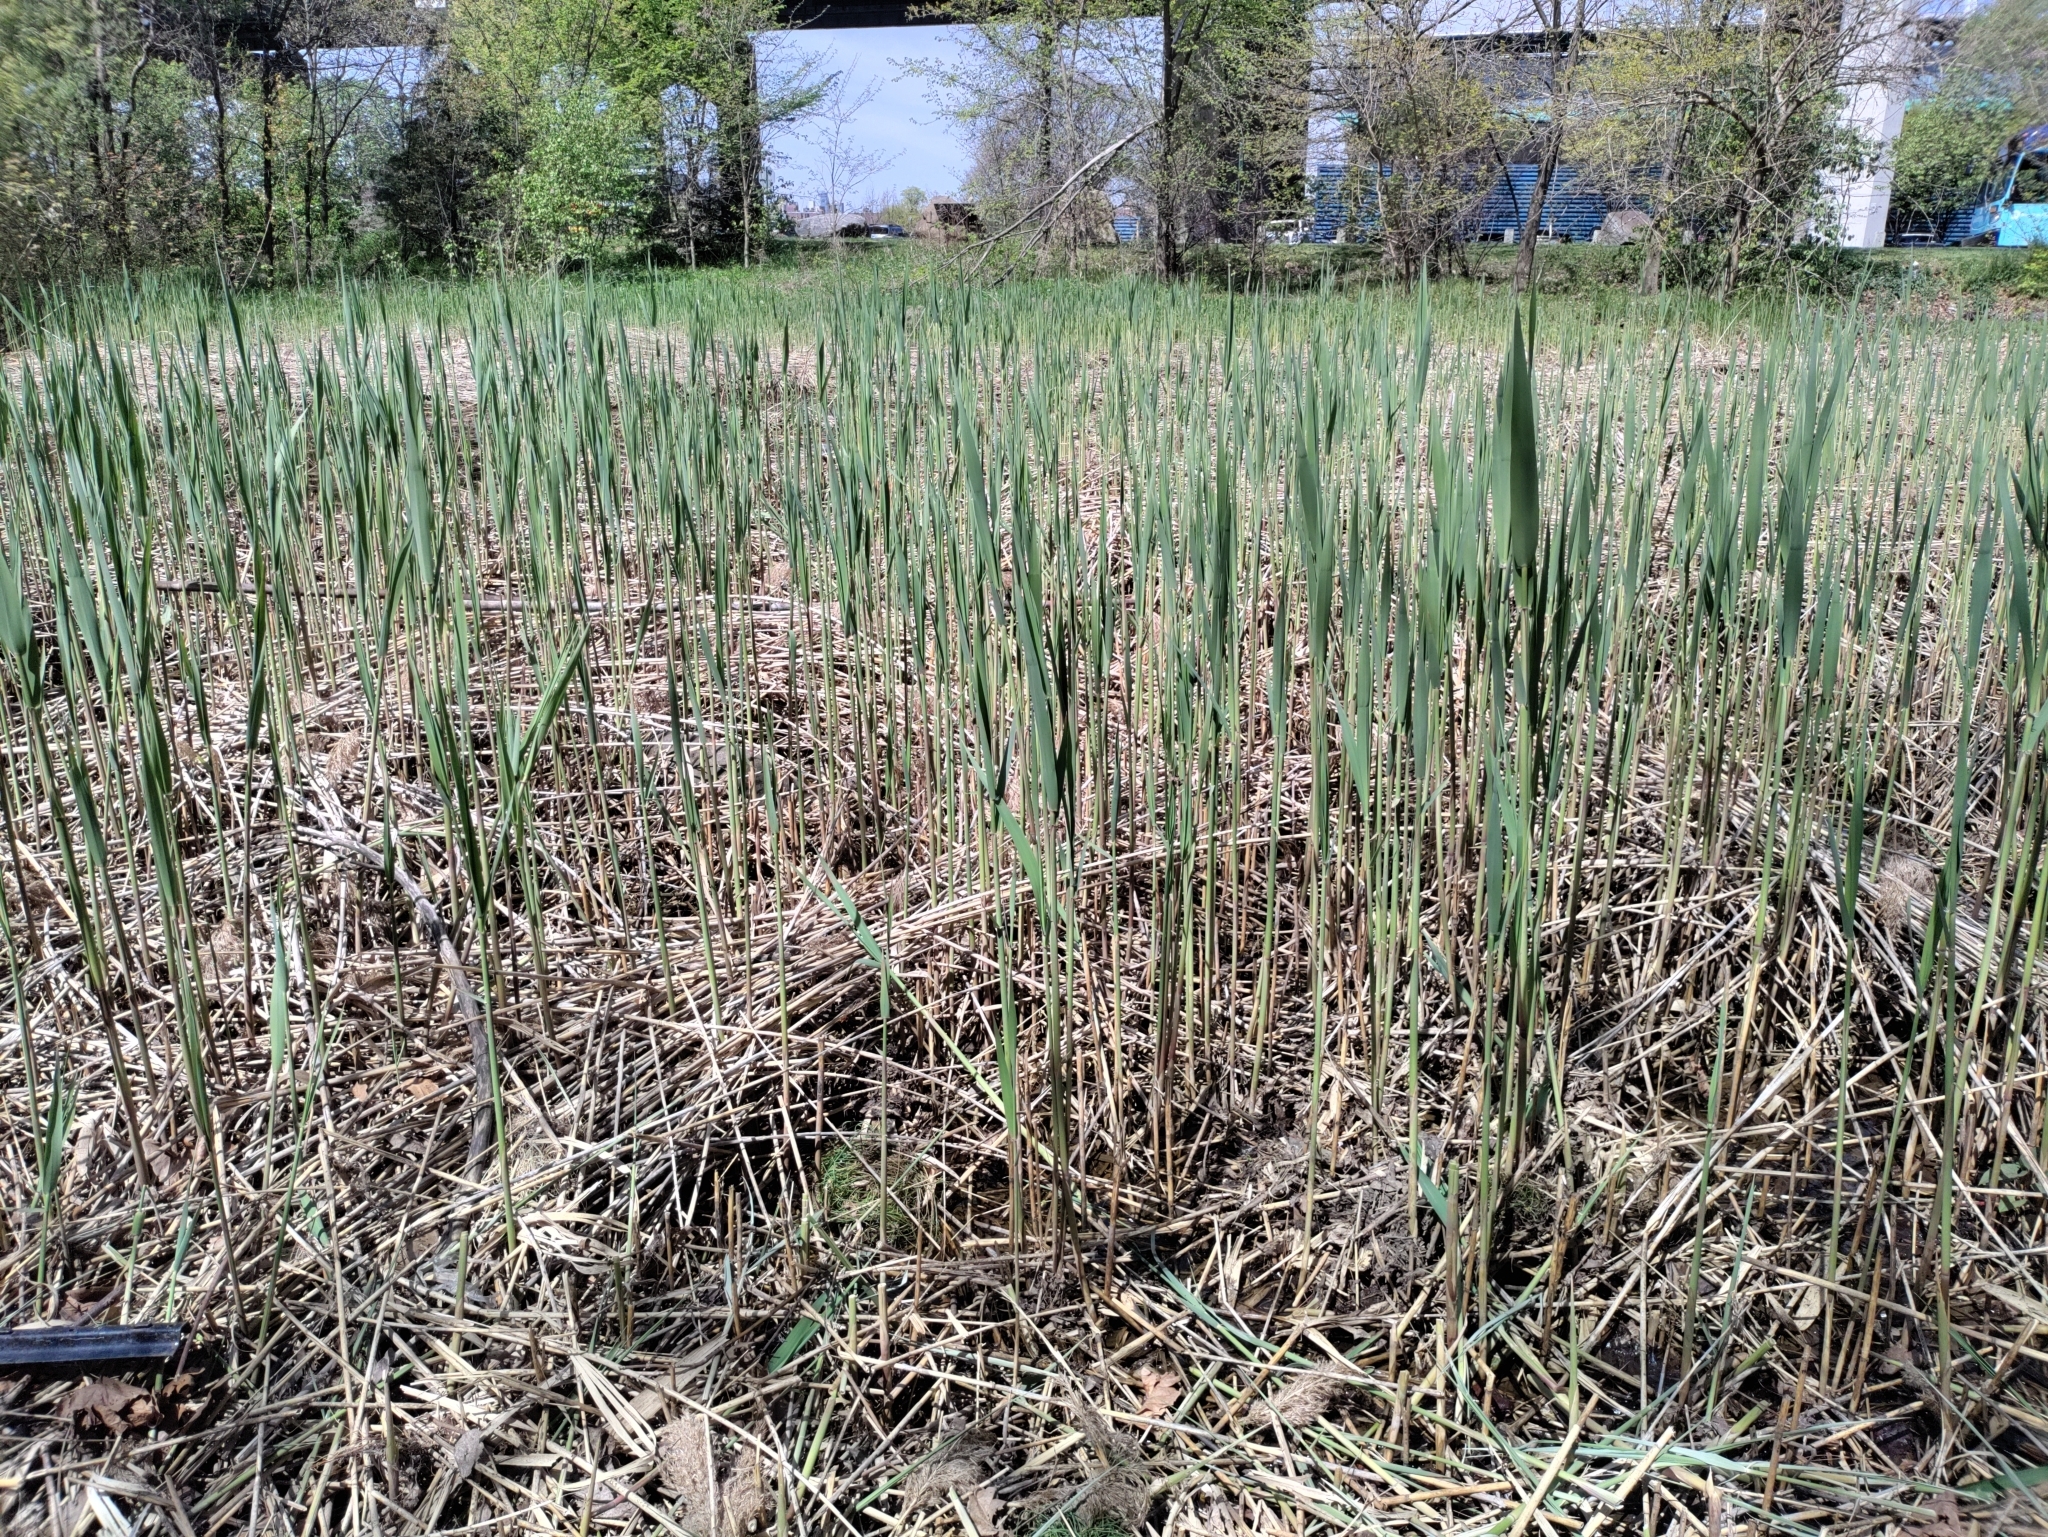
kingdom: Plantae
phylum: Tracheophyta
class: Liliopsida
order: Poales
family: Poaceae
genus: Phragmites
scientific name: Phragmites australis
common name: Common reed
